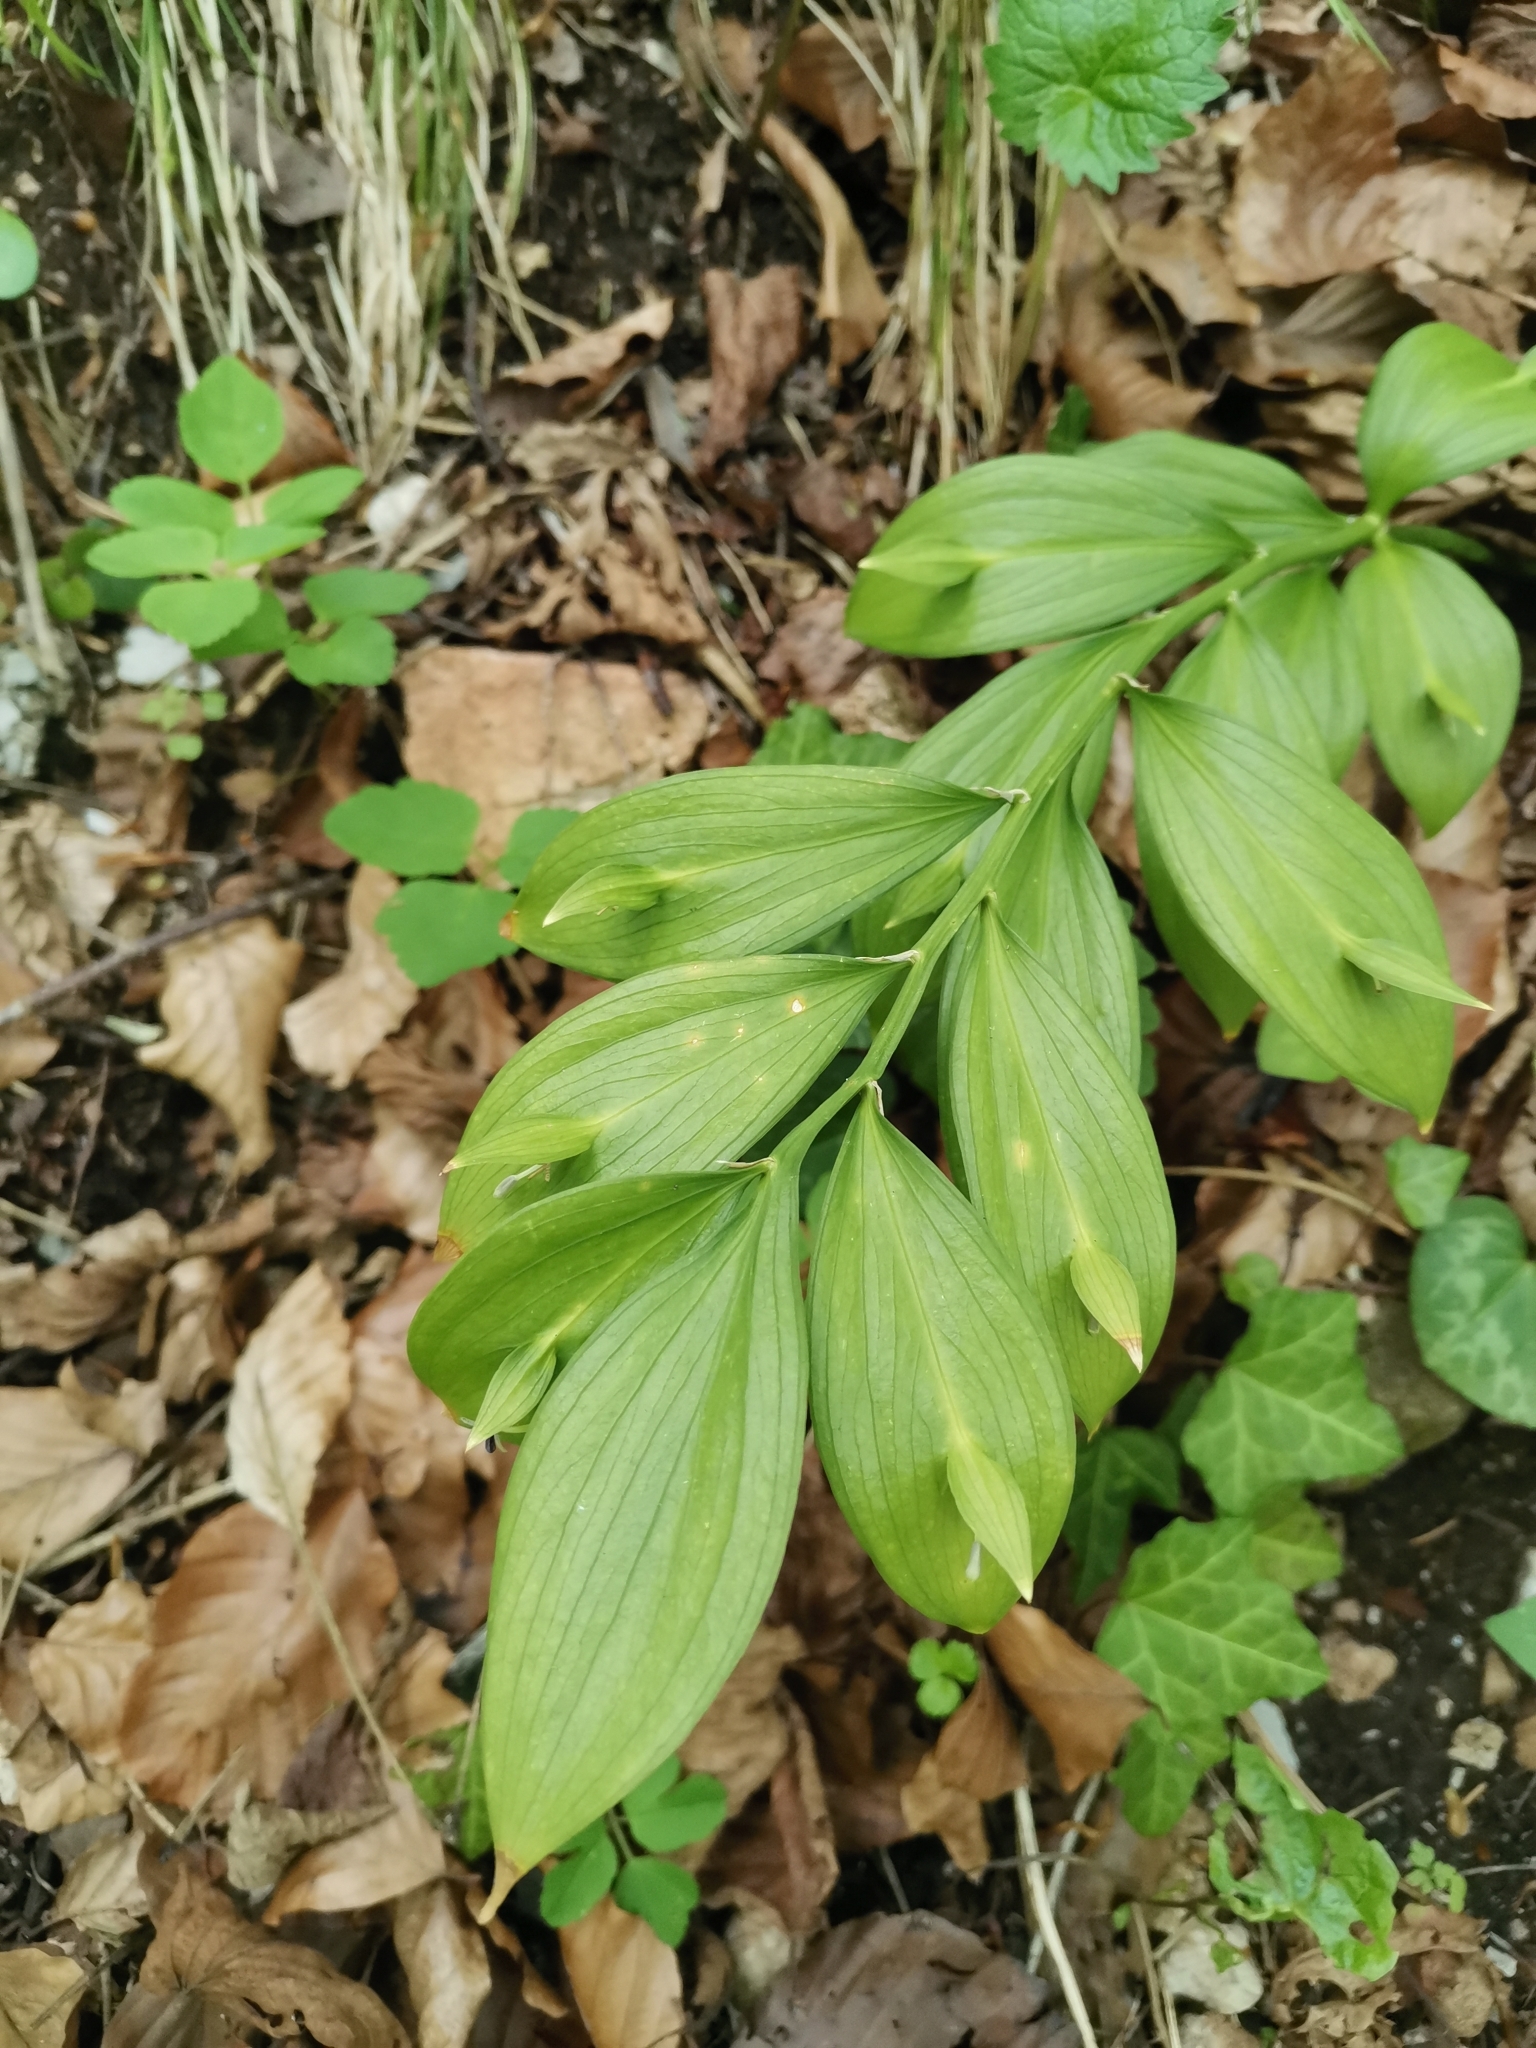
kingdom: Plantae
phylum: Tracheophyta
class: Liliopsida
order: Asparagales
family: Asparagaceae
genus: Ruscus
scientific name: Ruscus hypoglossum
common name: Spineless butcher's-broom
